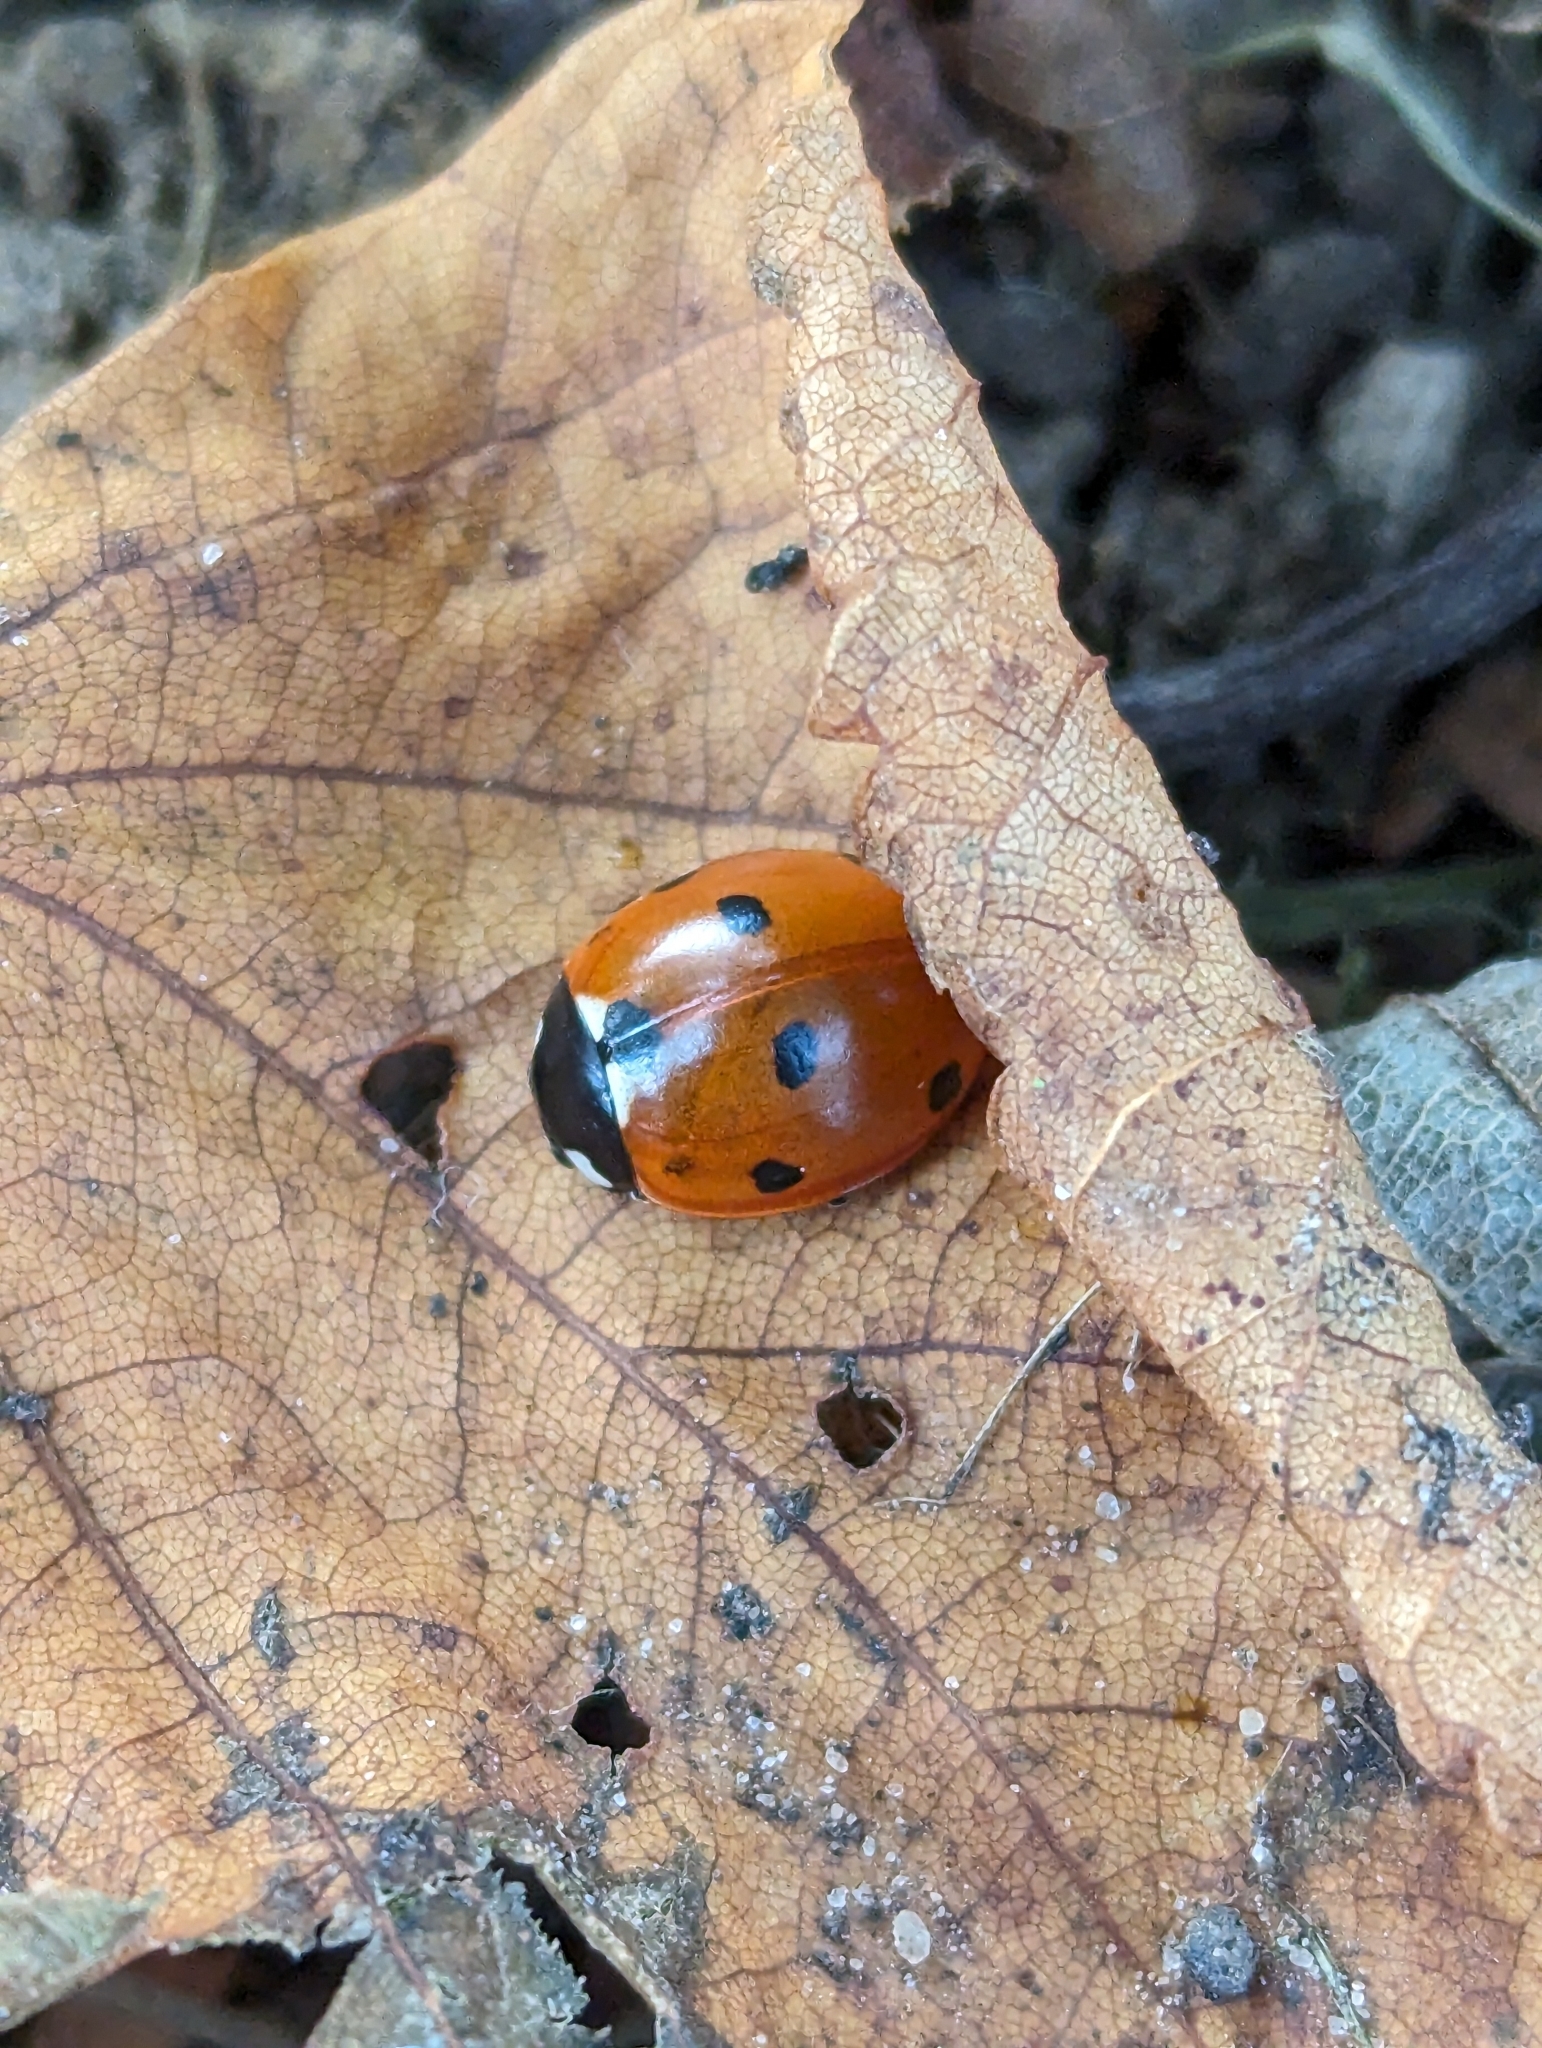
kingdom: Animalia
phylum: Arthropoda
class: Insecta
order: Coleoptera
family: Coccinellidae
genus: Coccinella
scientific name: Coccinella septempunctata
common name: Sevenspotted lady beetle
